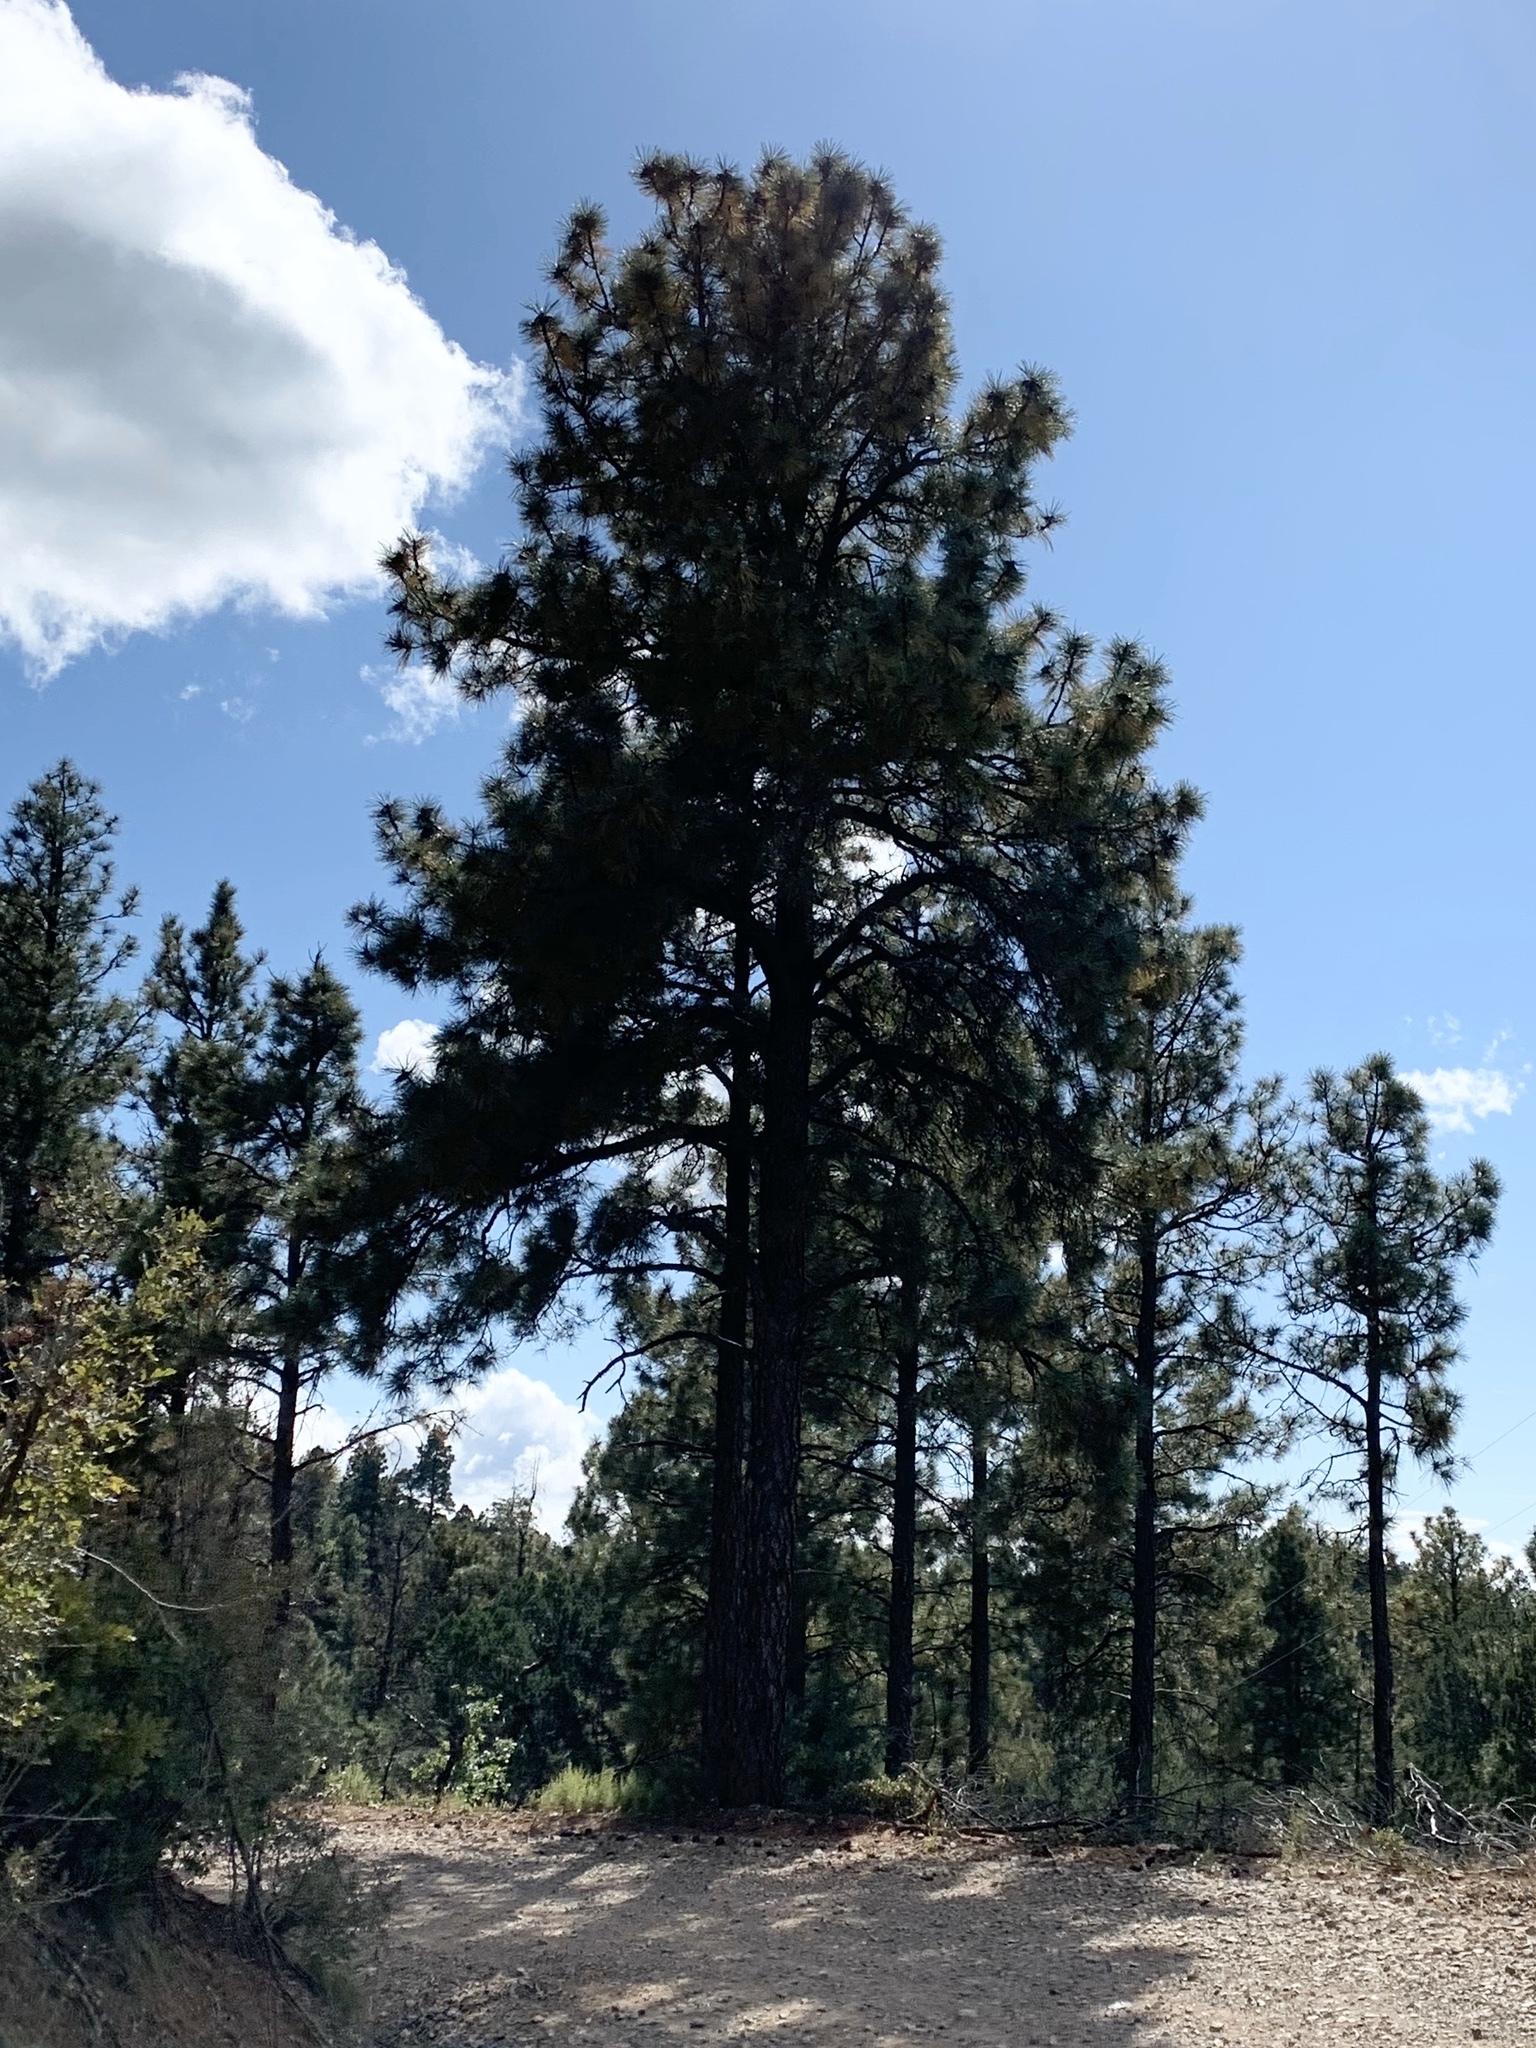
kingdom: Plantae
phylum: Tracheophyta
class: Pinopsida
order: Pinales
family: Pinaceae
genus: Pinus
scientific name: Pinus ponderosa
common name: Western yellow-pine
